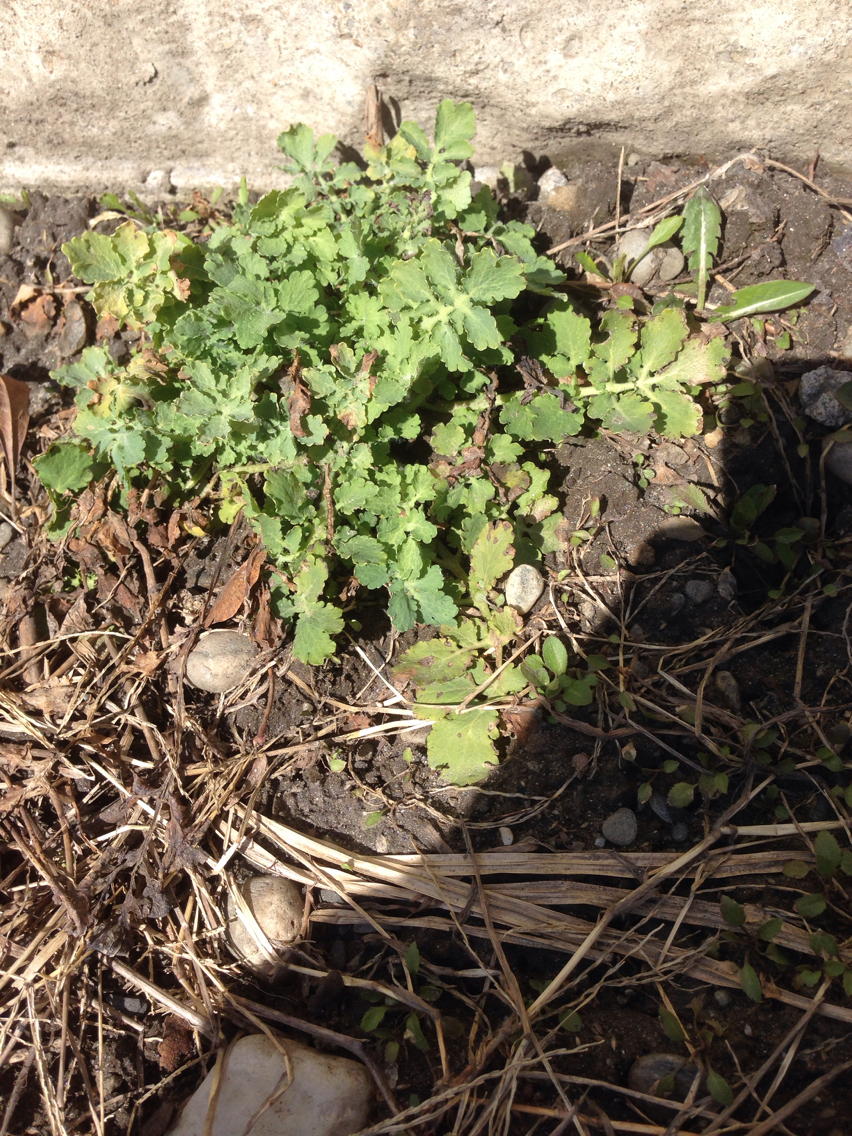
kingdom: Plantae
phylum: Tracheophyta
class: Magnoliopsida
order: Ranunculales
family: Papaveraceae
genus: Chelidonium
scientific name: Chelidonium majus
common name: Greater celandine
